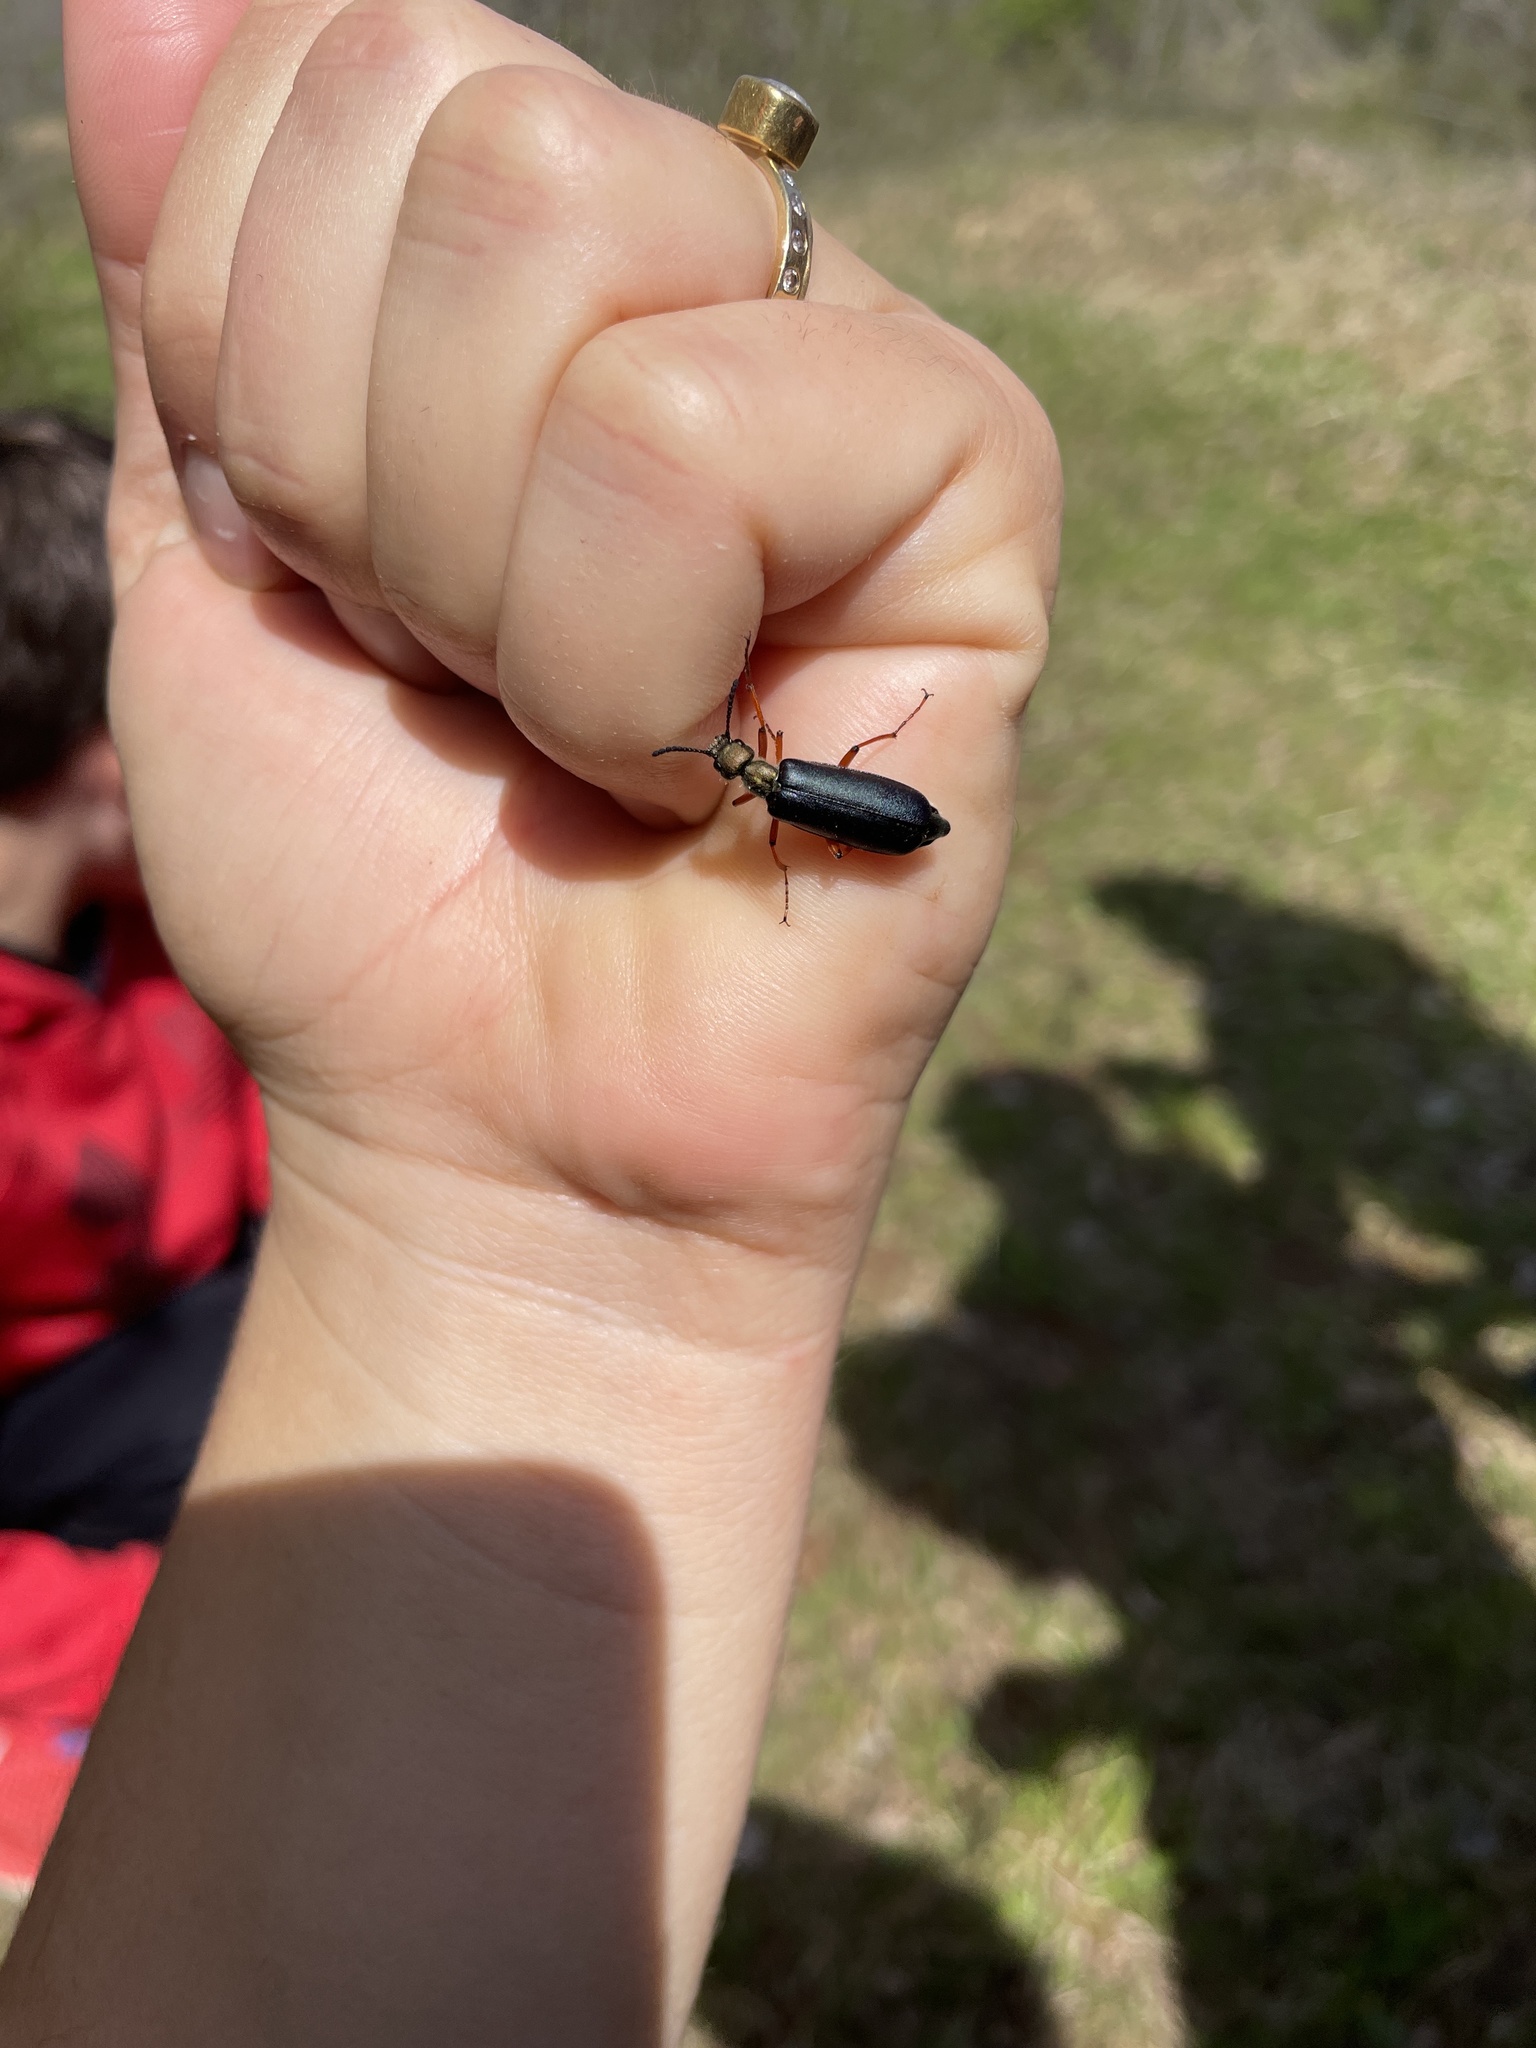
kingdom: Animalia
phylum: Arthropoda
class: Insecta
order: Coleoptera
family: Meloidae
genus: Lytta
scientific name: Lytta aenea
